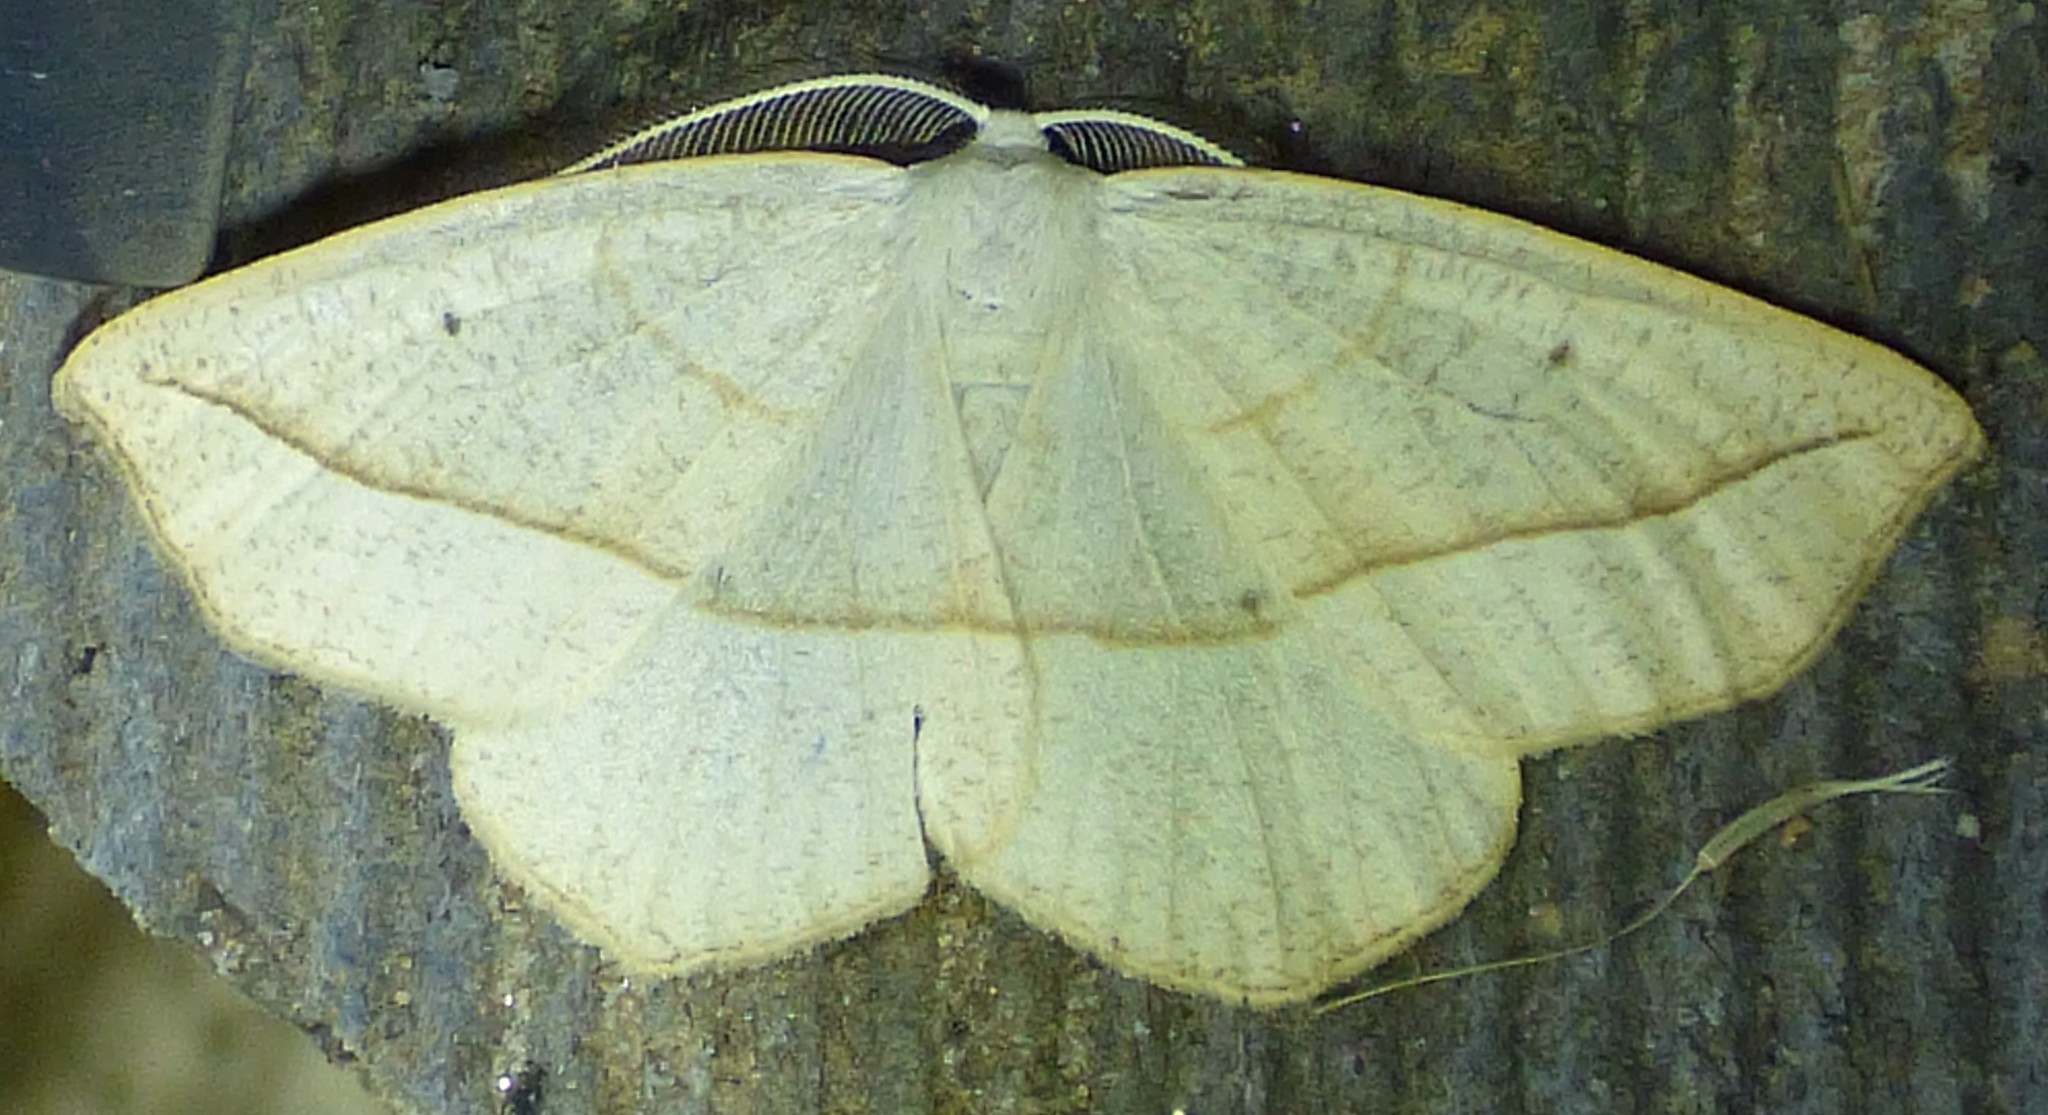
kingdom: Animalia
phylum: Arthropoda
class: Insecta
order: Lepidoptera
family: Geometridae
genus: Eusarca
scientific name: Eusarca confusaria
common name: Confused eusarca
